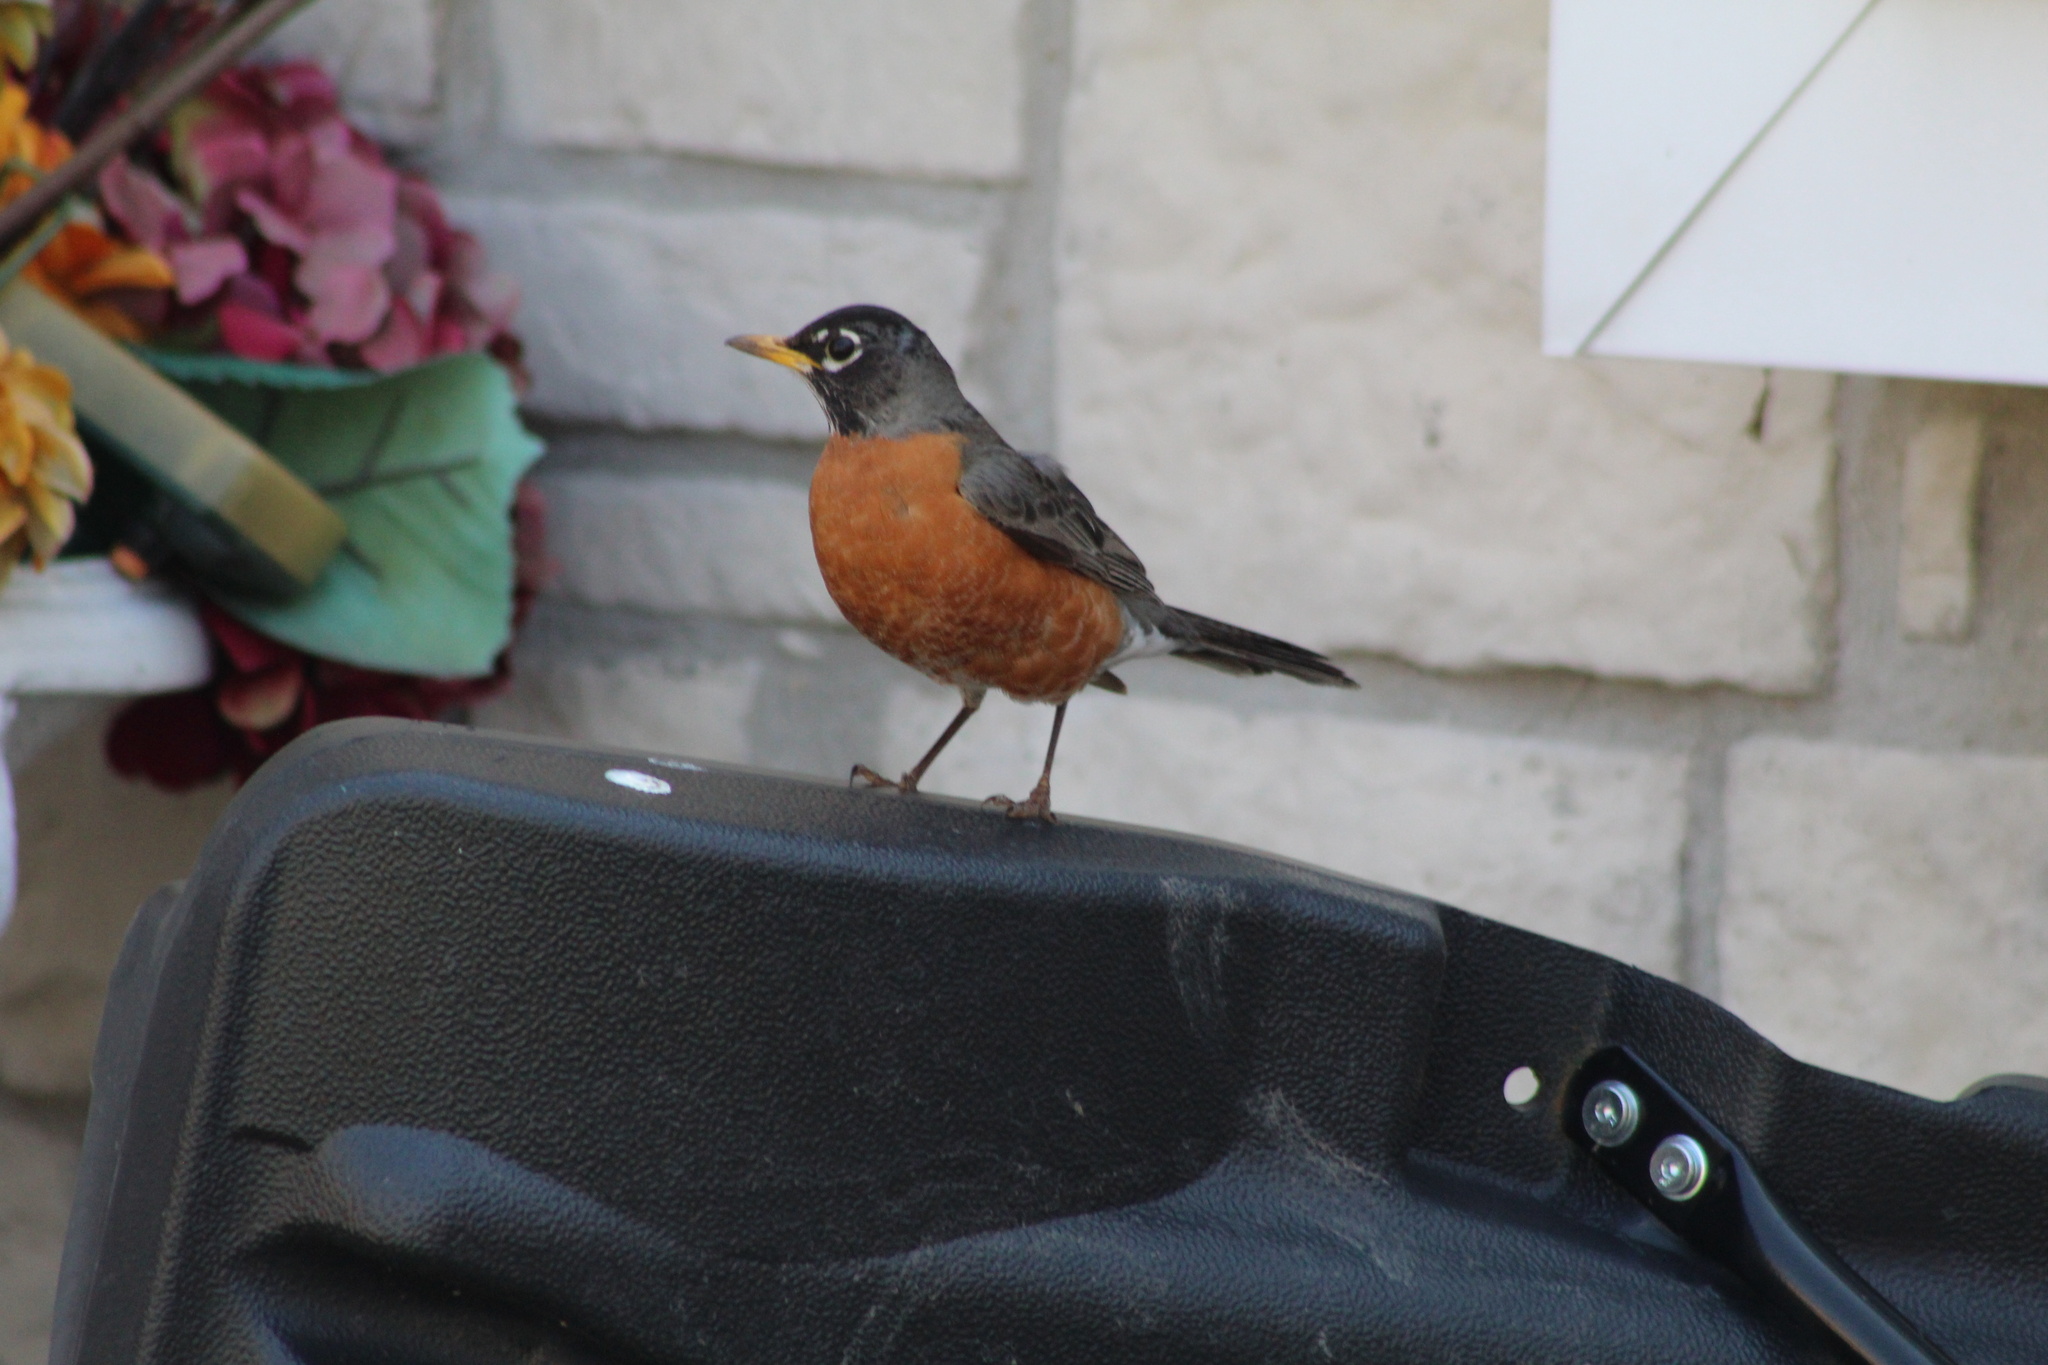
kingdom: Animalia
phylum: Chordata
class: Aves
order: Passeriformes
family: Turdidae
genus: Turdus
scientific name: Turdus migratorius
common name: American robin
